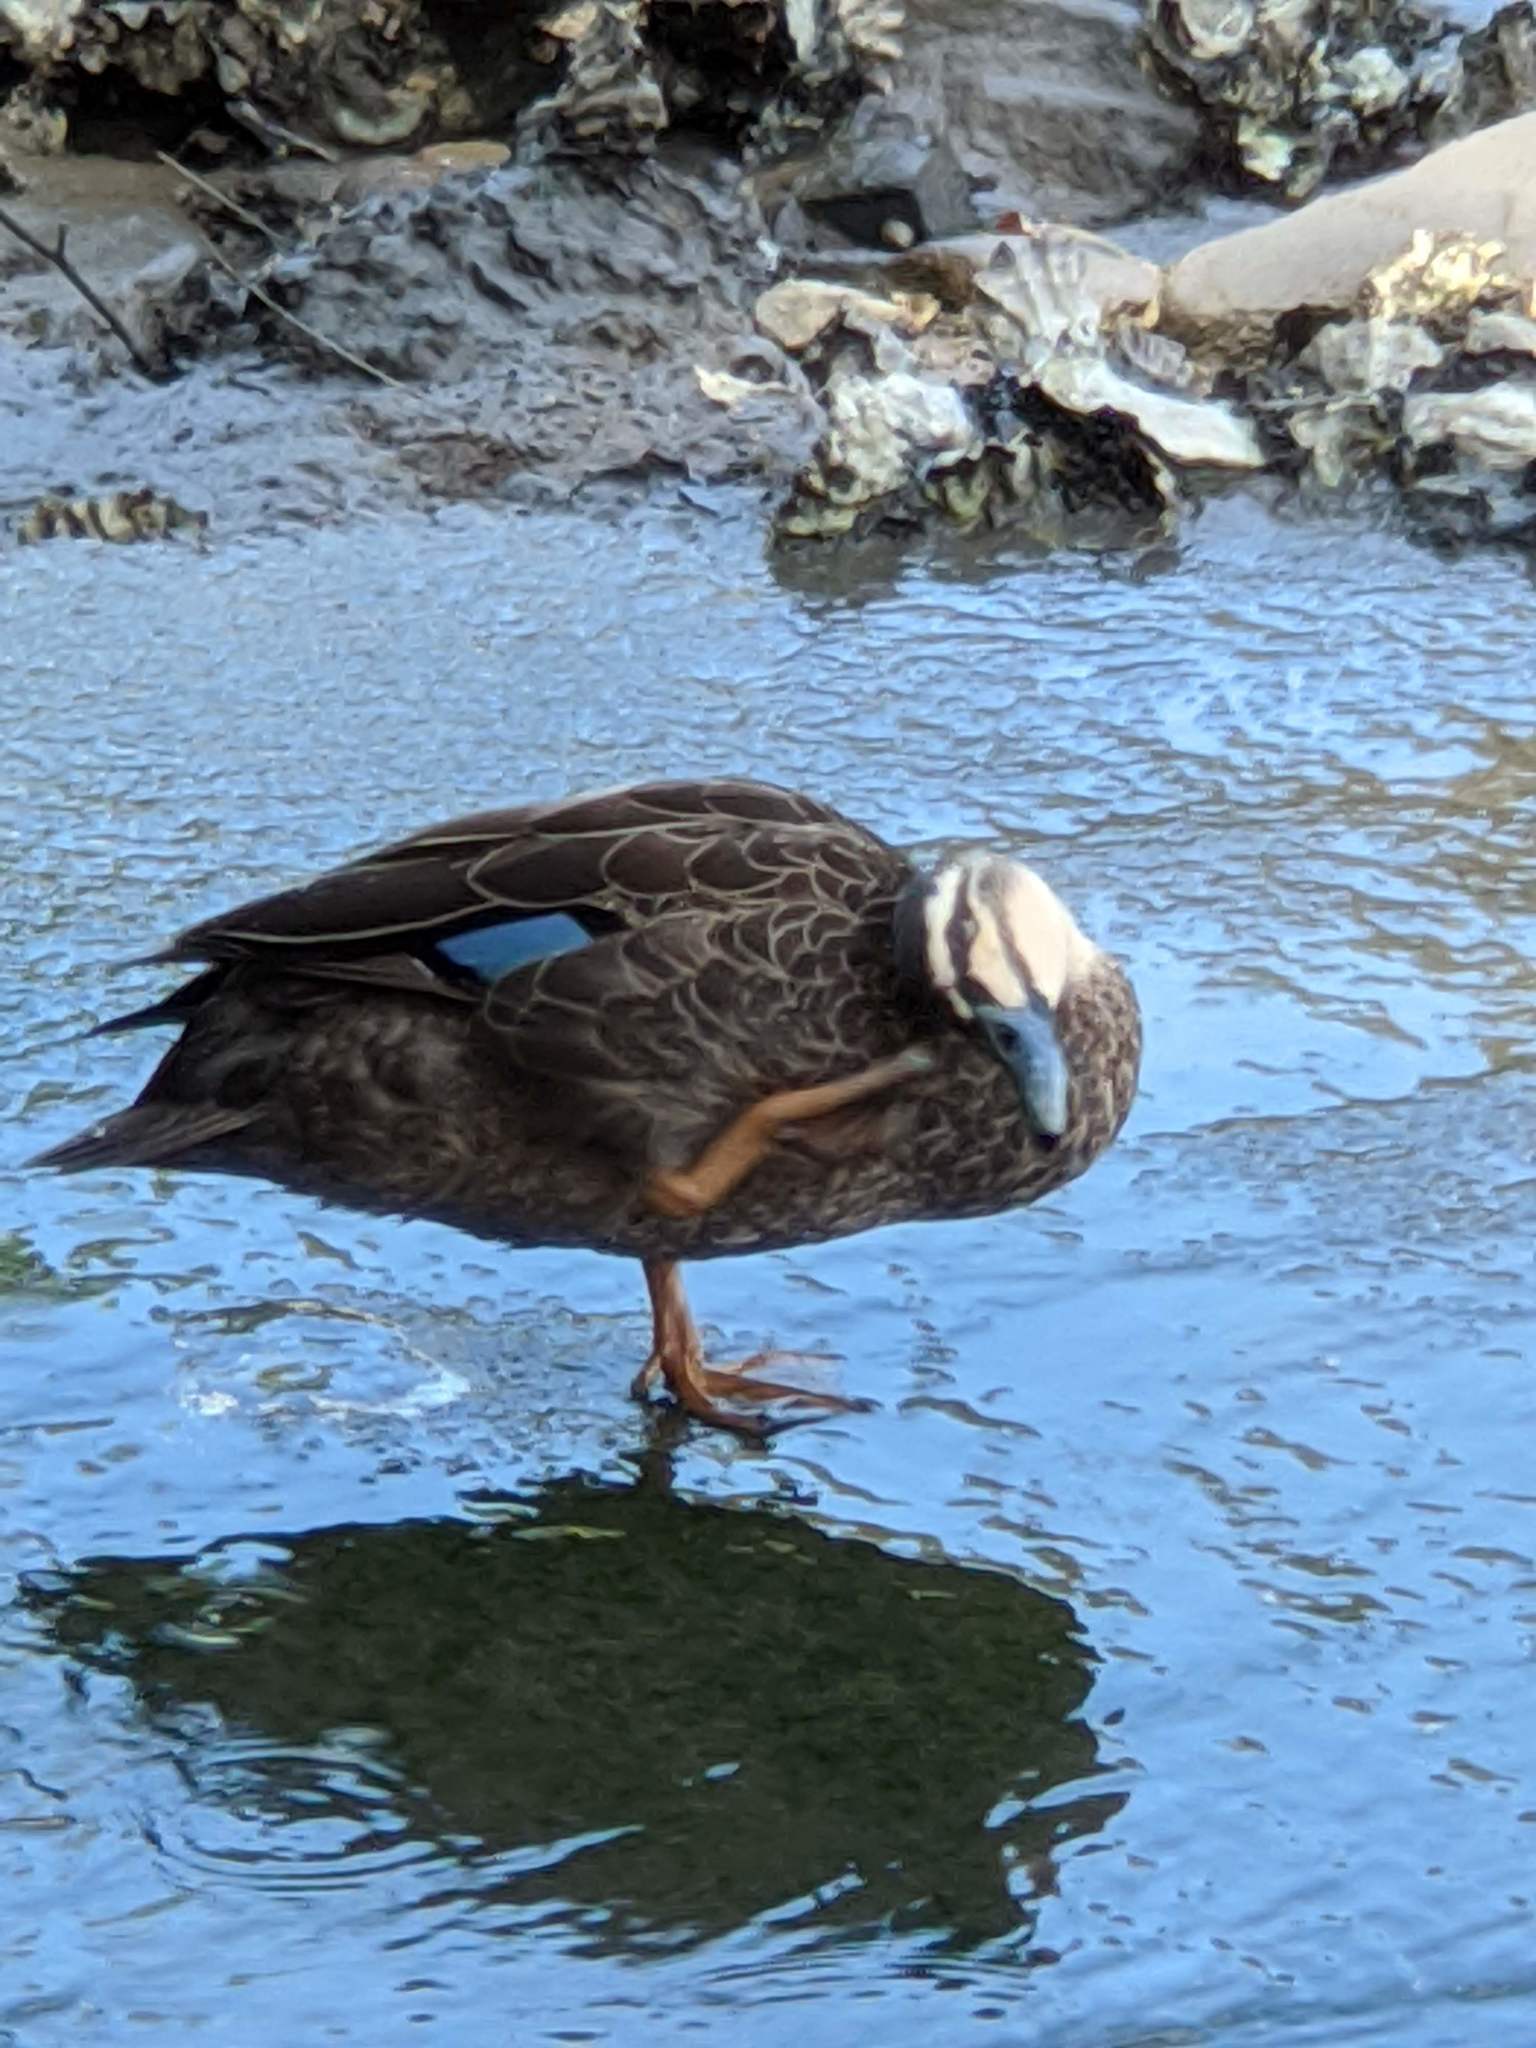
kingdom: Animalia
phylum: Chordata
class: Aves
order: Anseriformes
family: Anatidae
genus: Anas
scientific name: Anas
